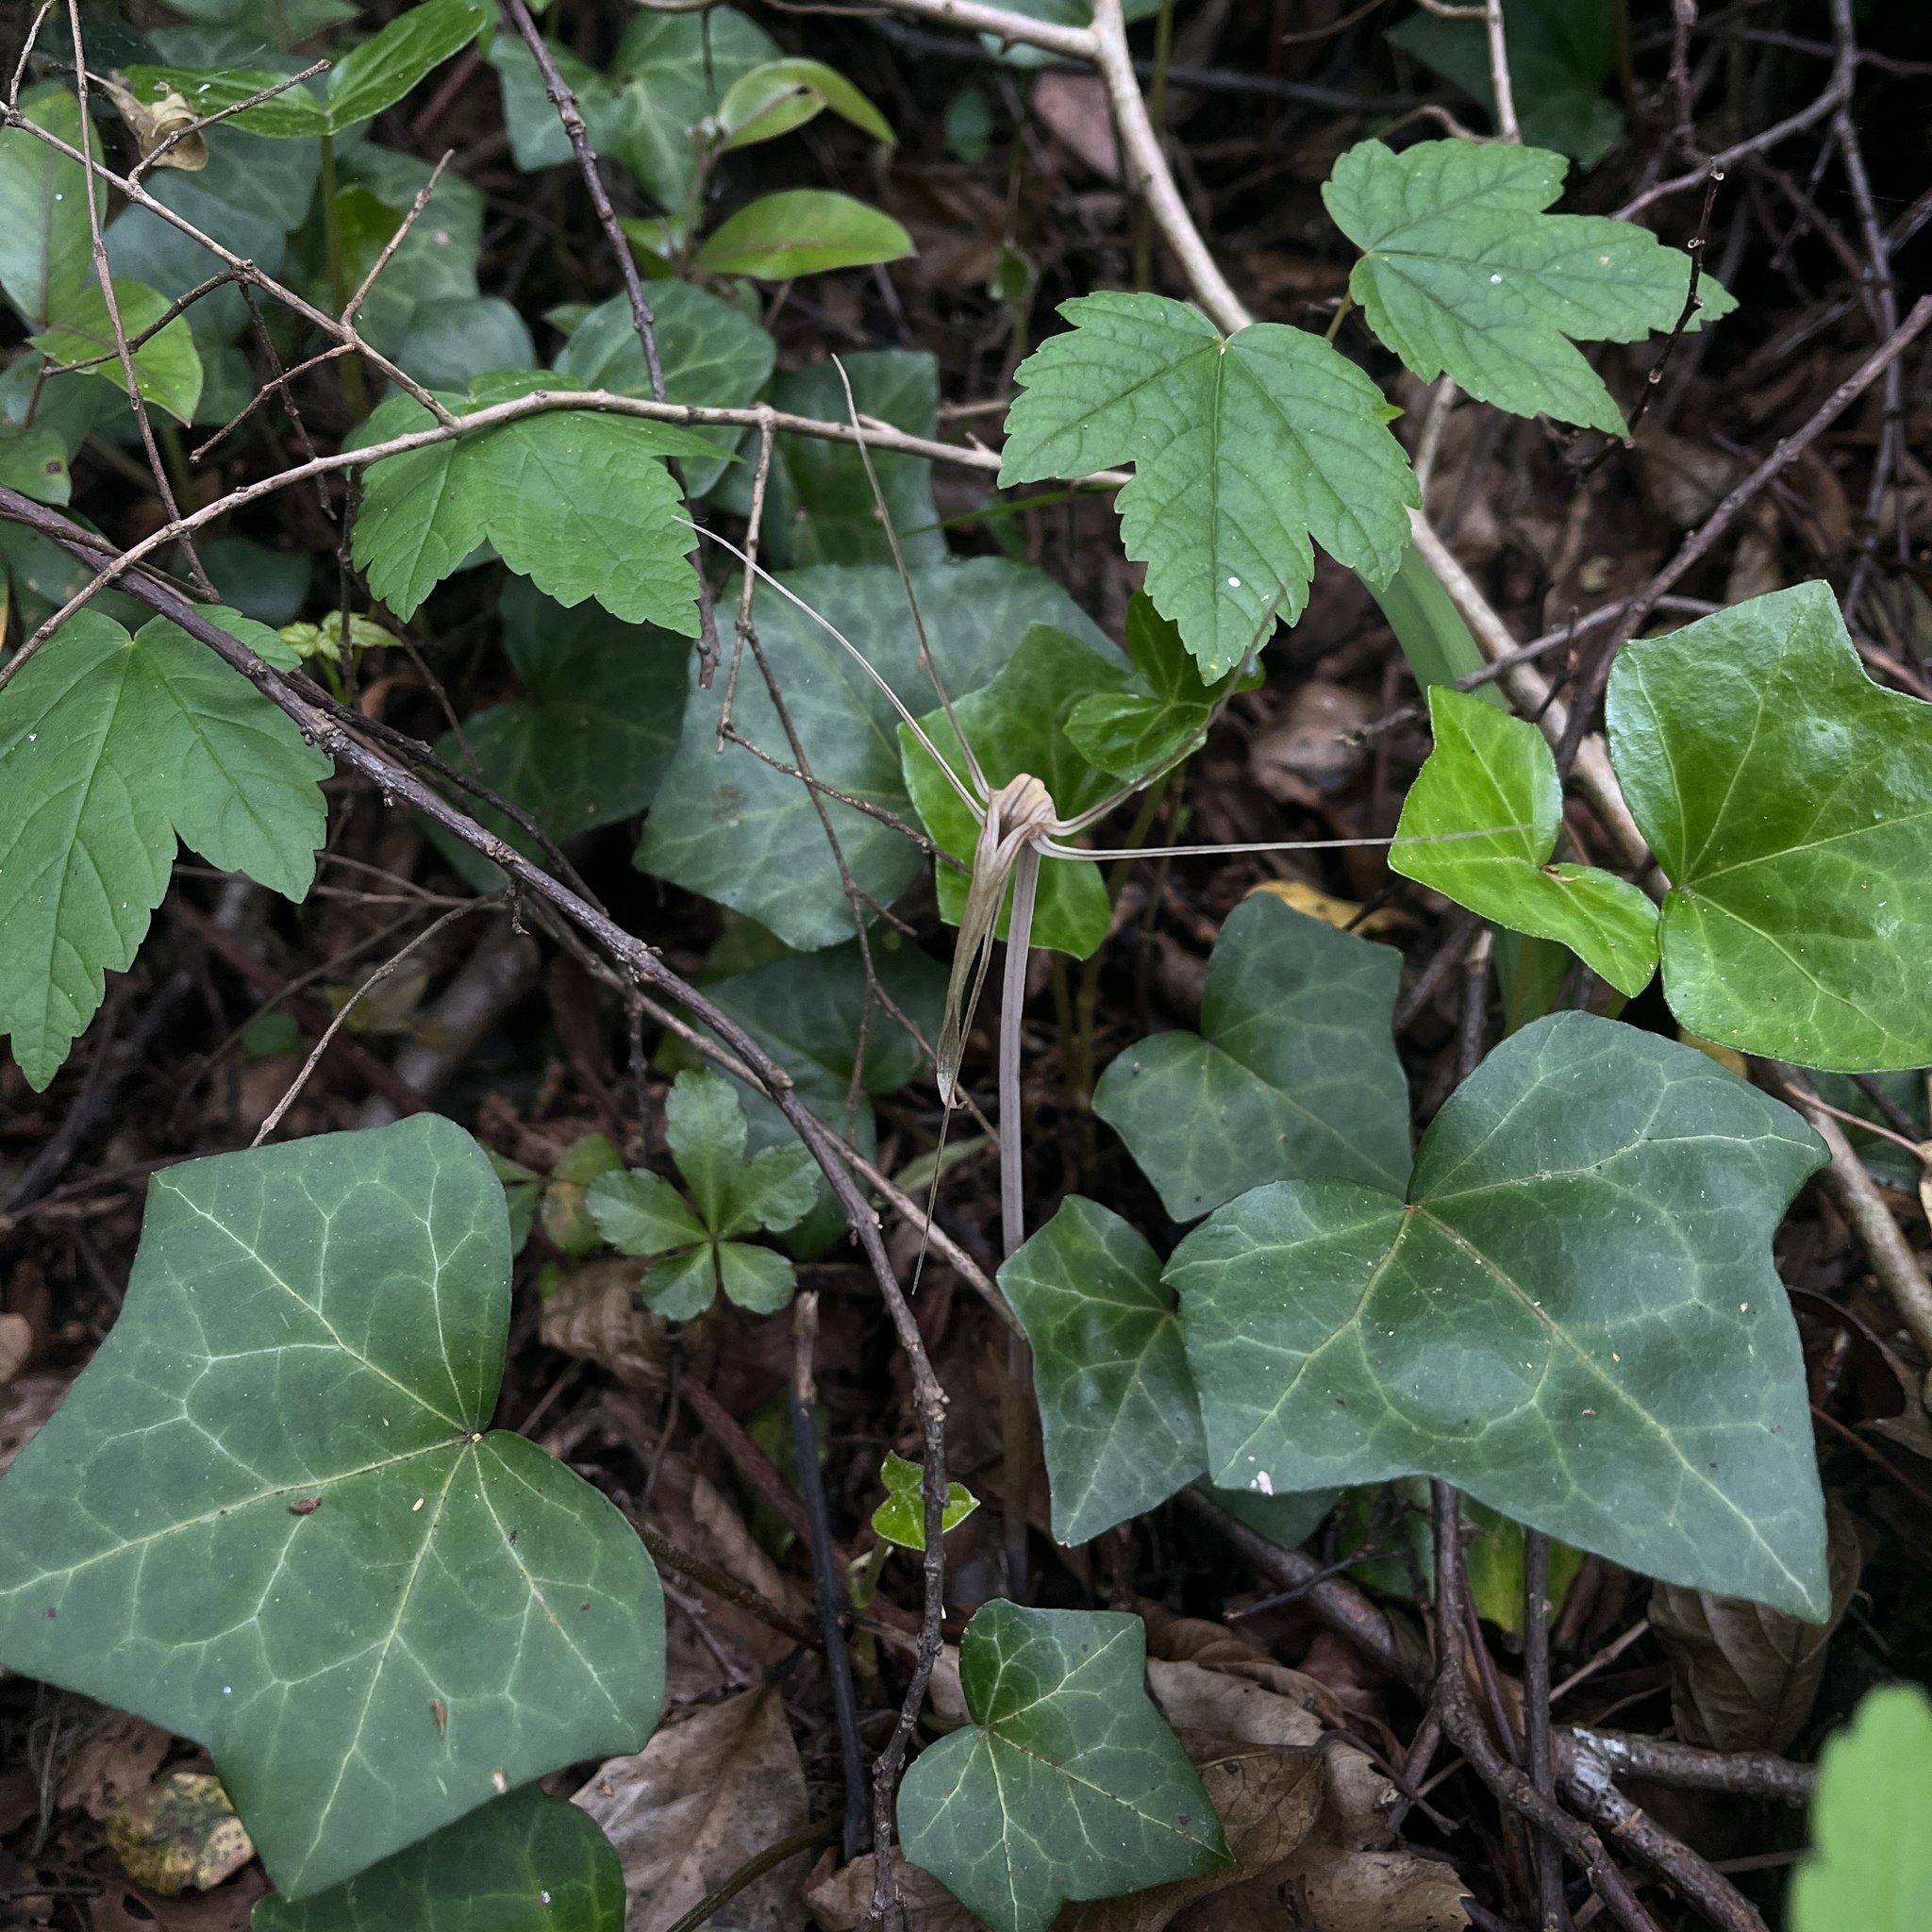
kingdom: Plantae
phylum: Tracheophyta
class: Liliopsida
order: Liliales
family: Corsiaceae
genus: Arachnitis
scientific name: Arachnitis uniflora
